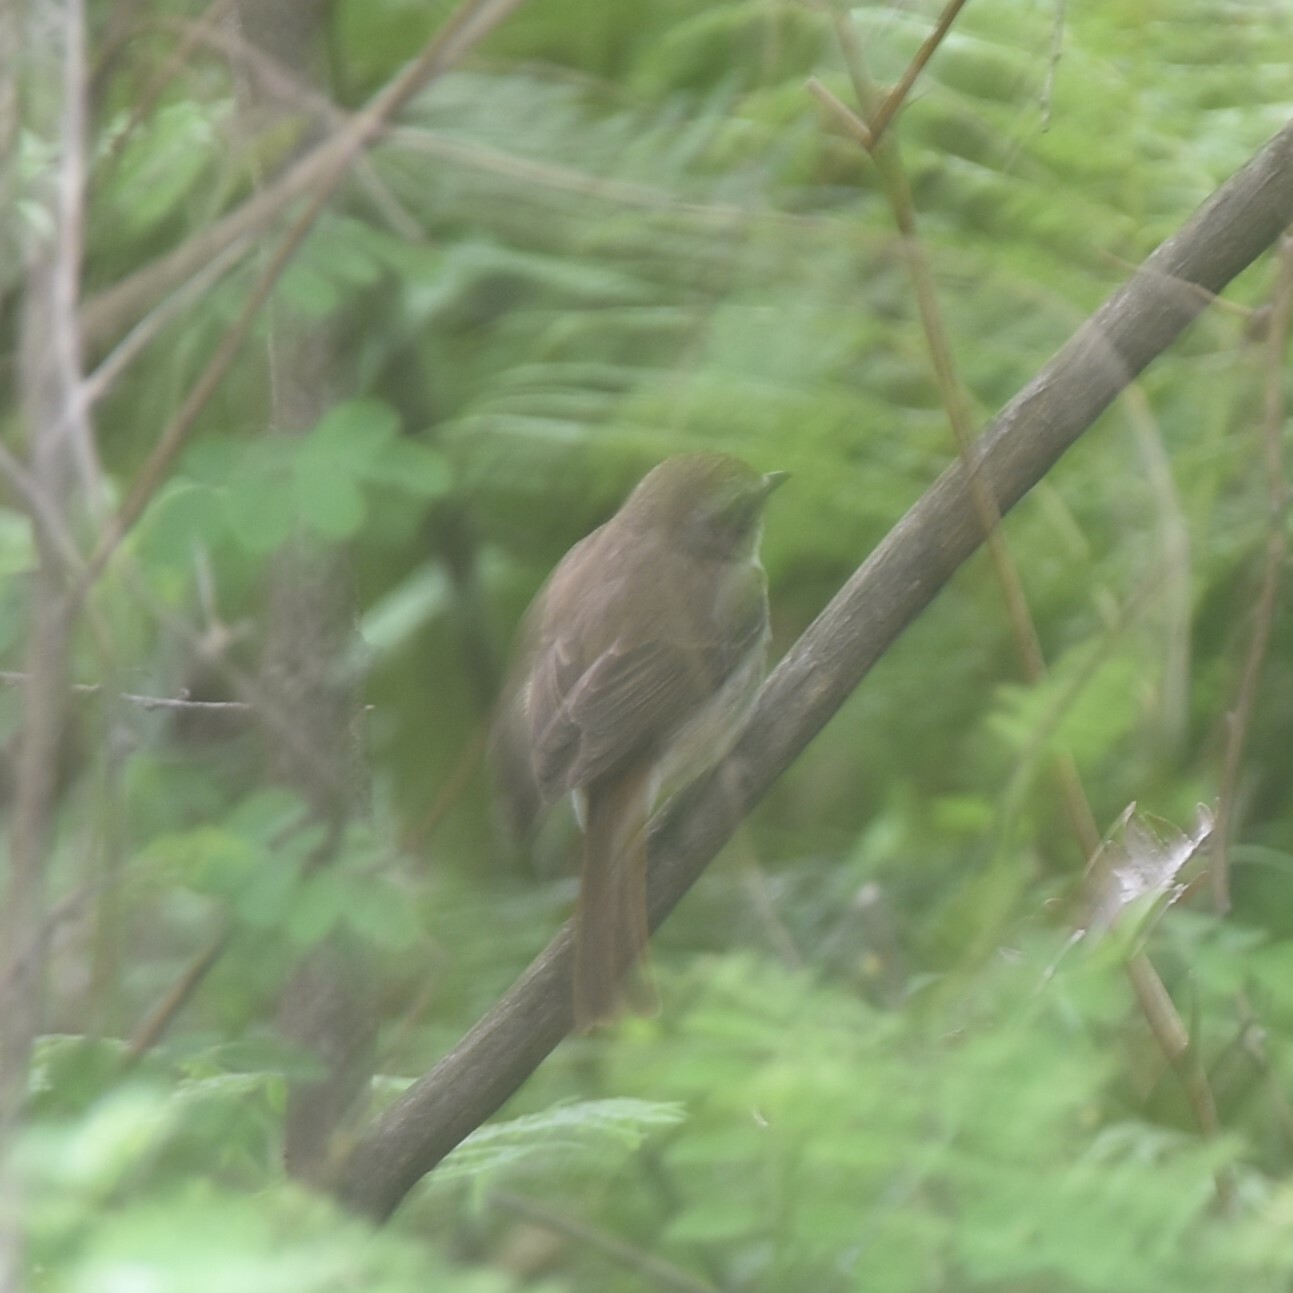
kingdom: Animalia
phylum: Chordata
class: Aves
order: Passeriformes
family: Muscicapidae
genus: Saxicola
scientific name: Saxicola ferreus
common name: Grey bush chat
